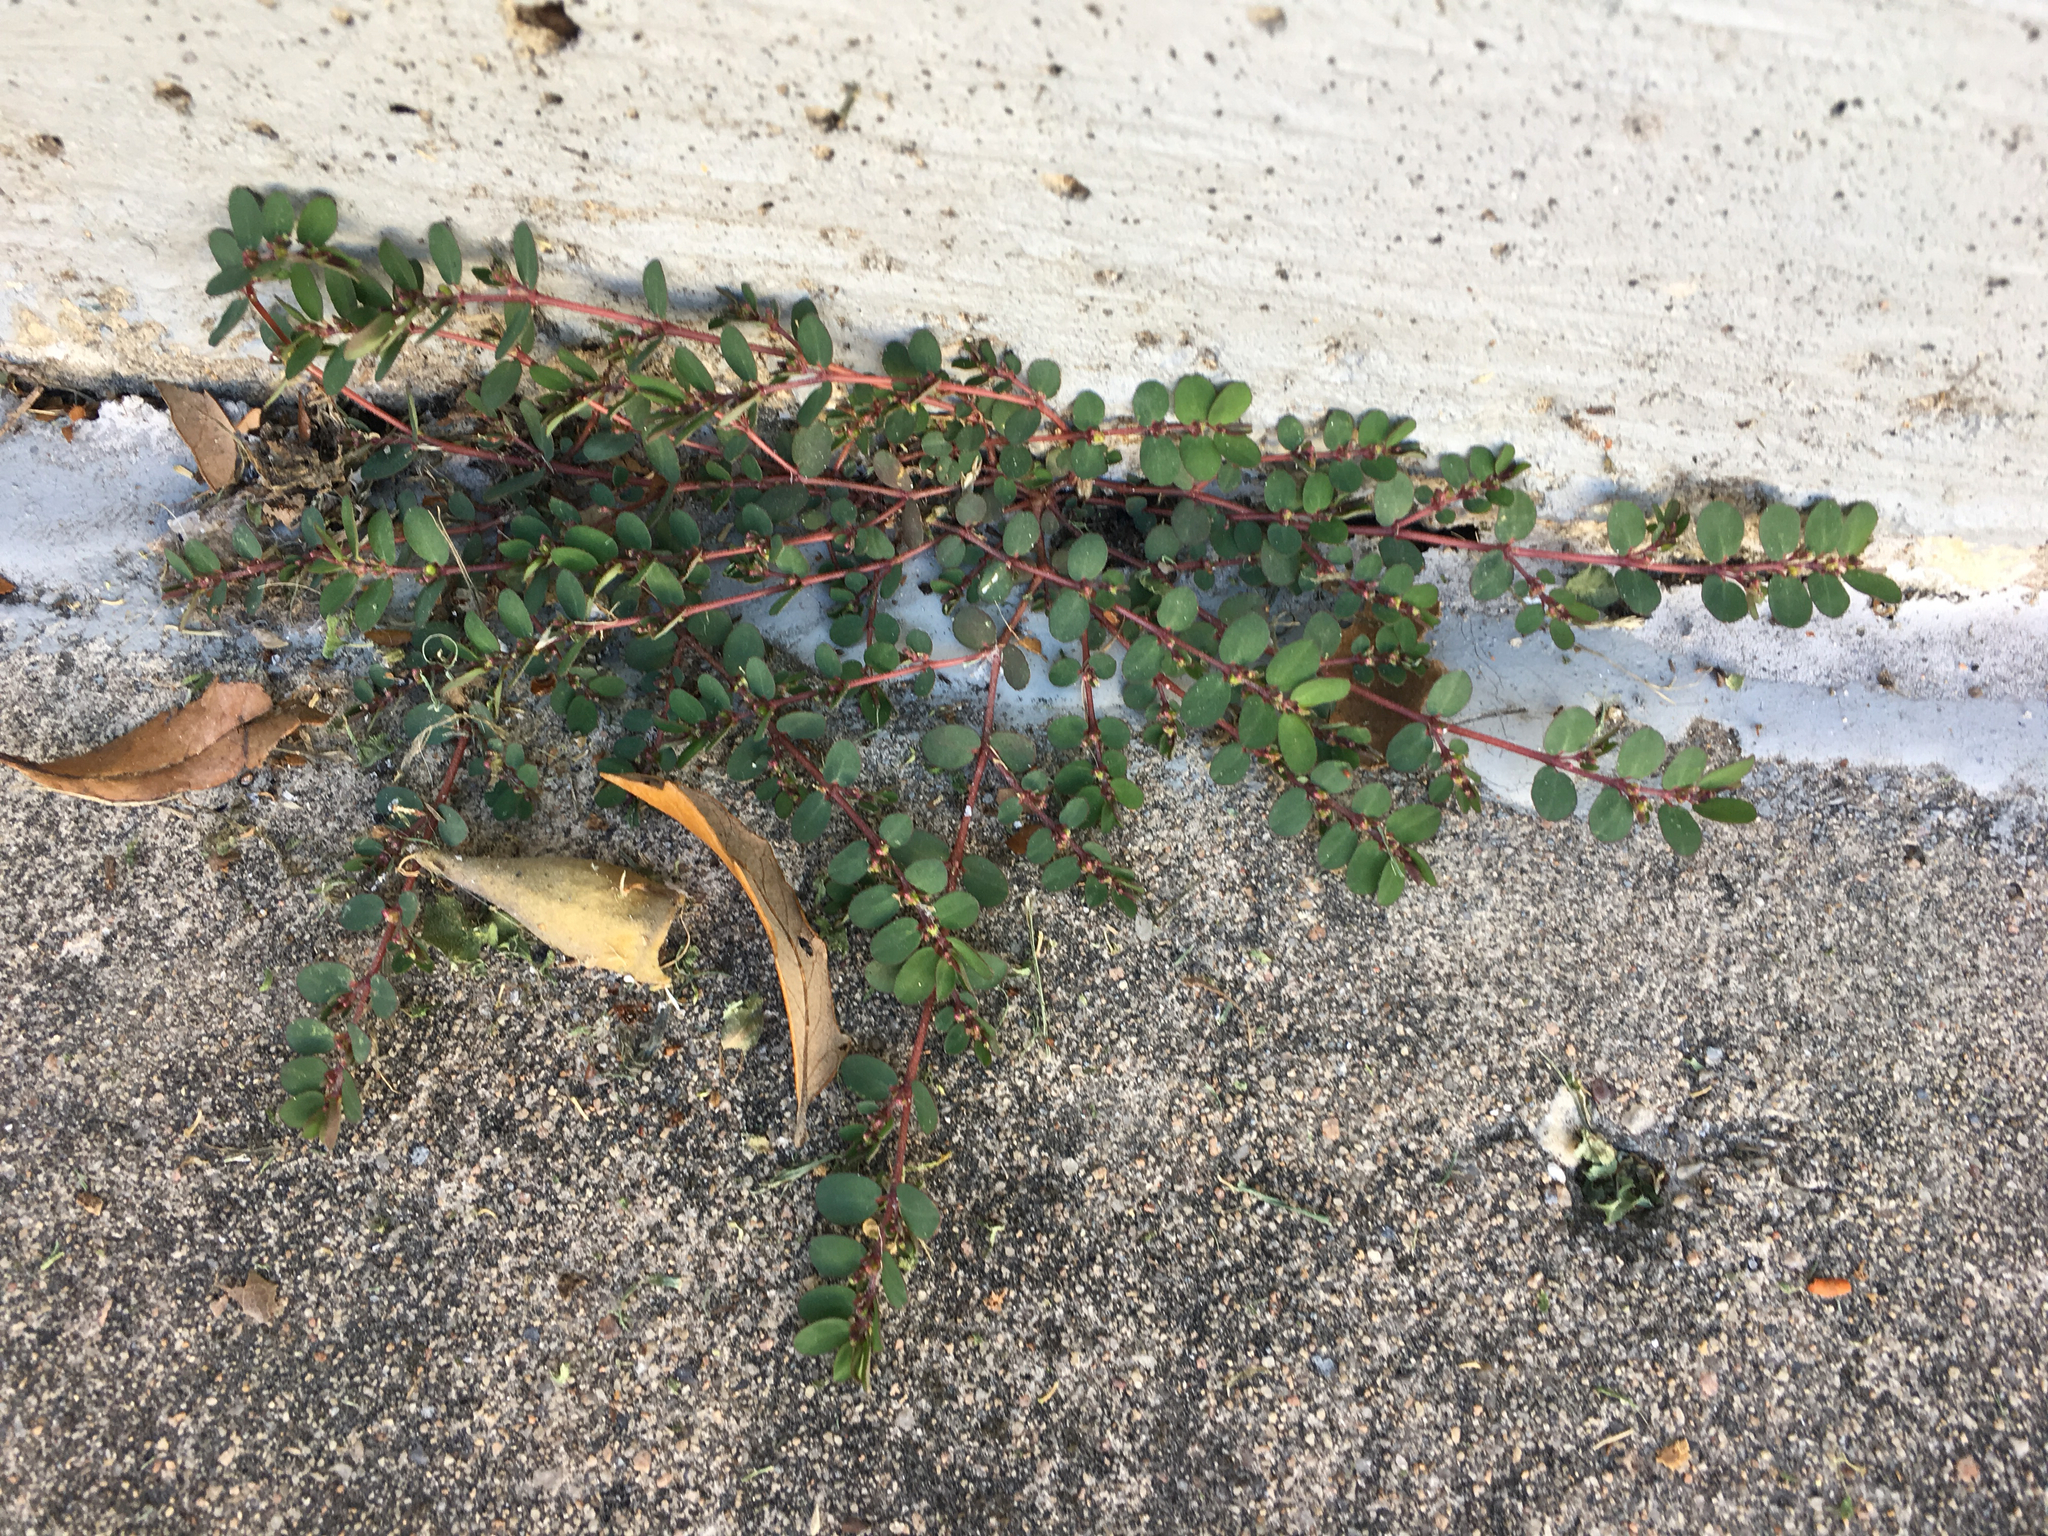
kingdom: Plantae
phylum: Tracheophyta
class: Magnoliopsida
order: Malpighiales
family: Euphorbiaceae
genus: Euphorbia
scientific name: Euphorbia prostrata
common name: Prostrate sandmat
